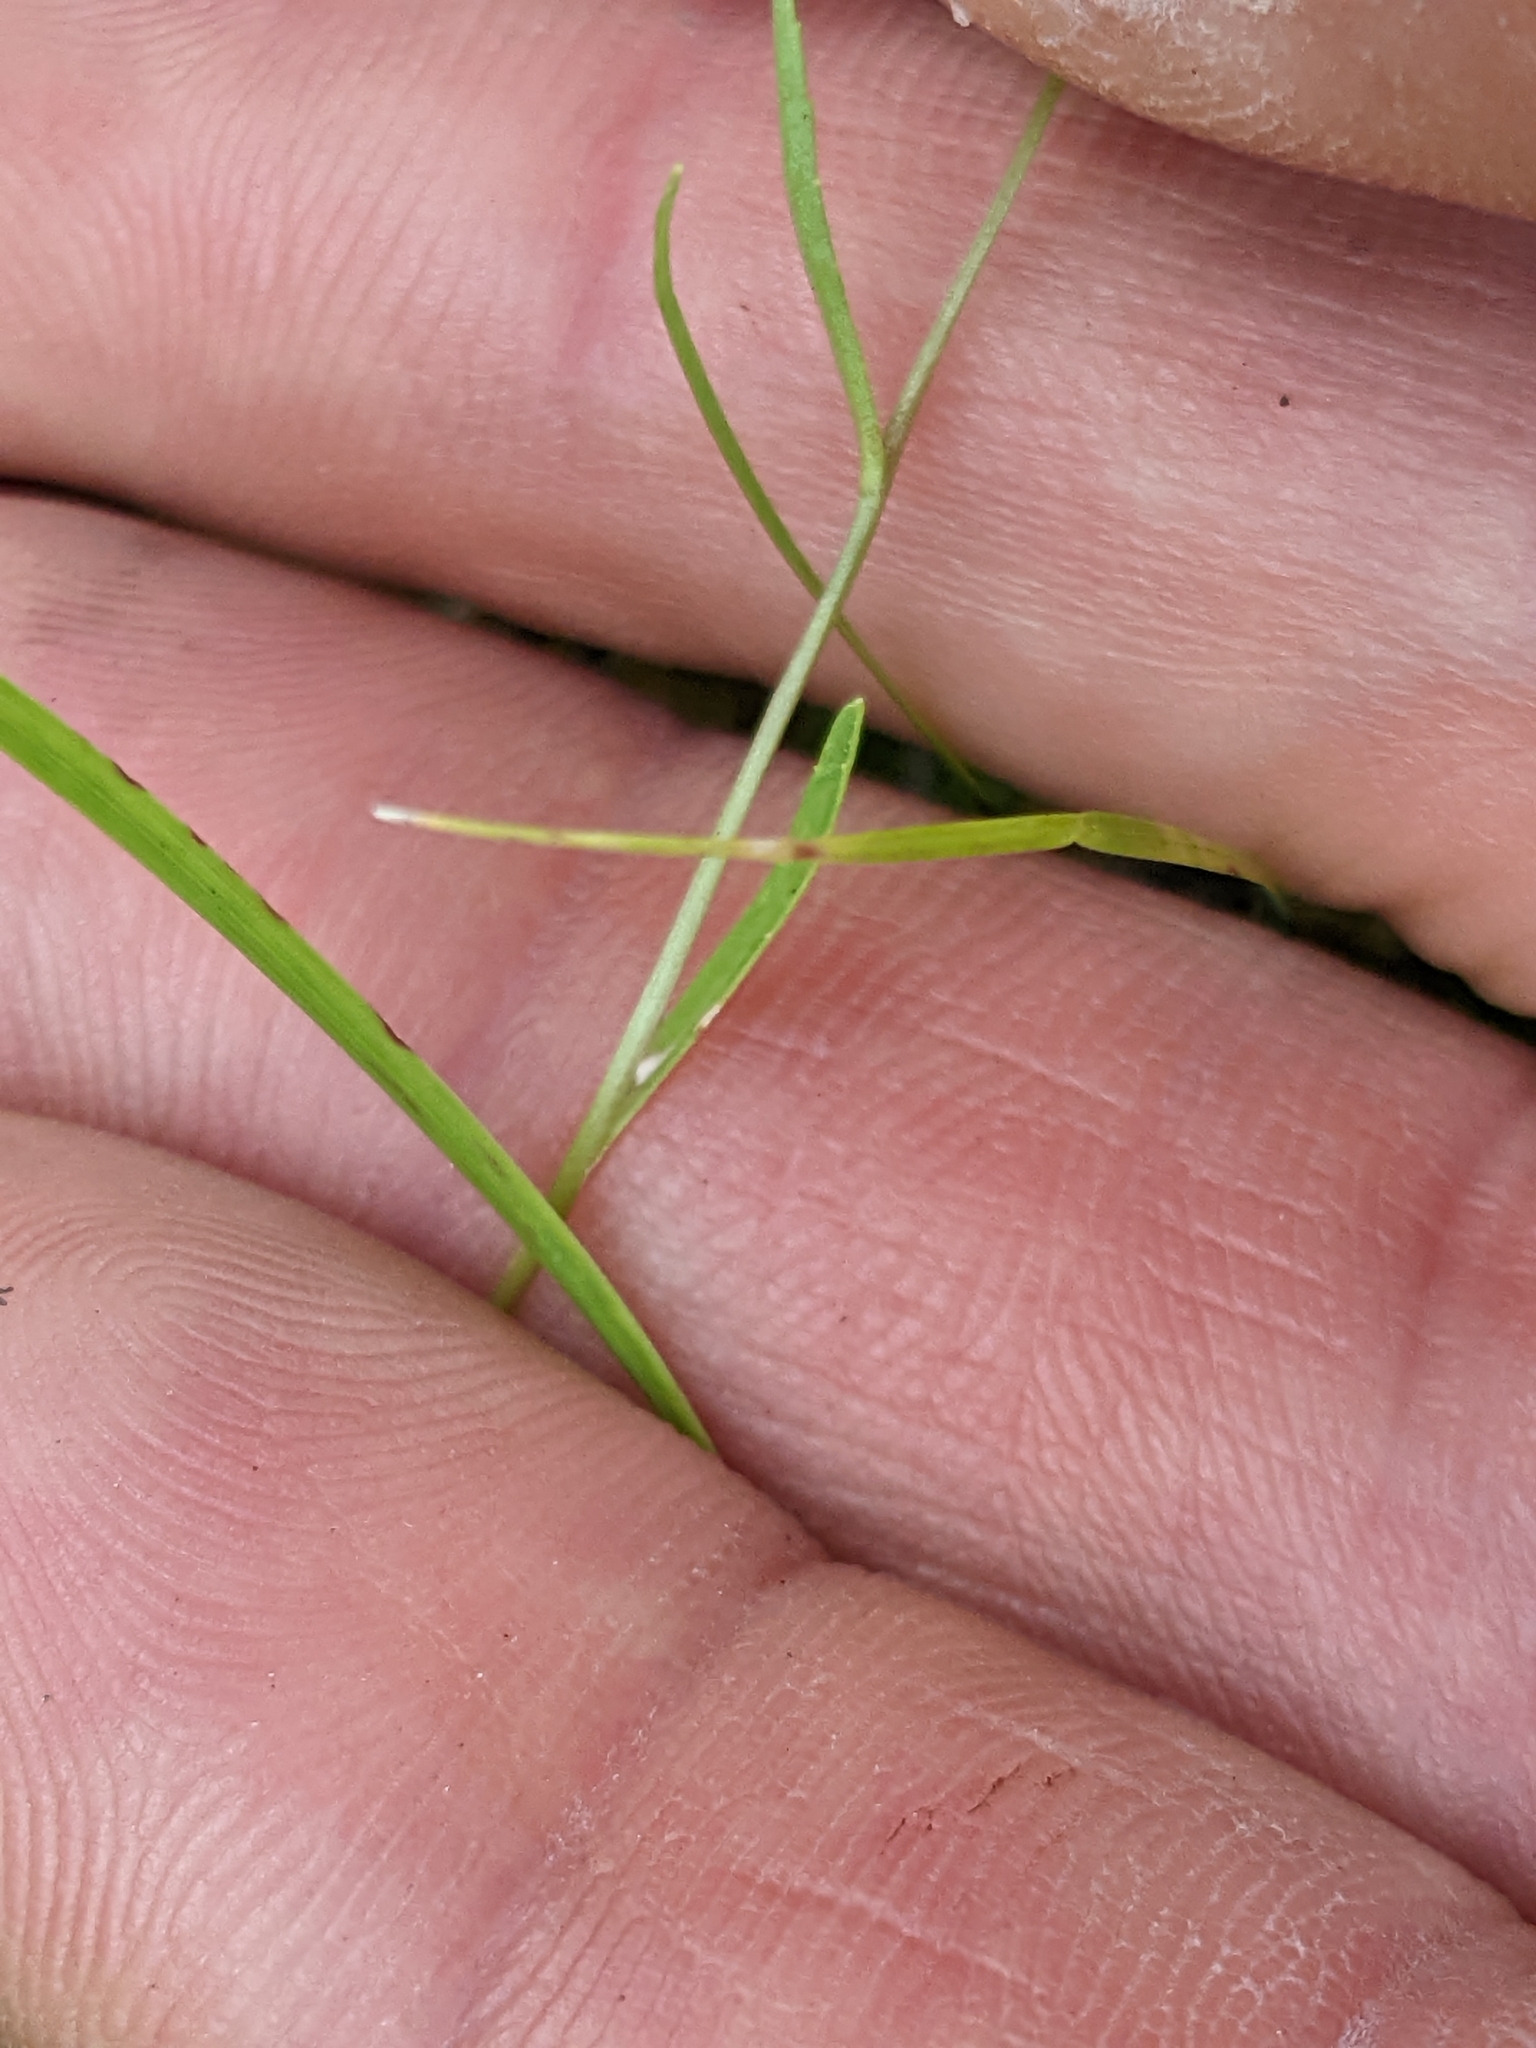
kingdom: Plantae
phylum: Tracheophyta
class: Magnoliopsida
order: Asterales
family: Campanulaceae
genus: Lobelia
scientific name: Lobelia kalmii
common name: Kalm's lobelia
